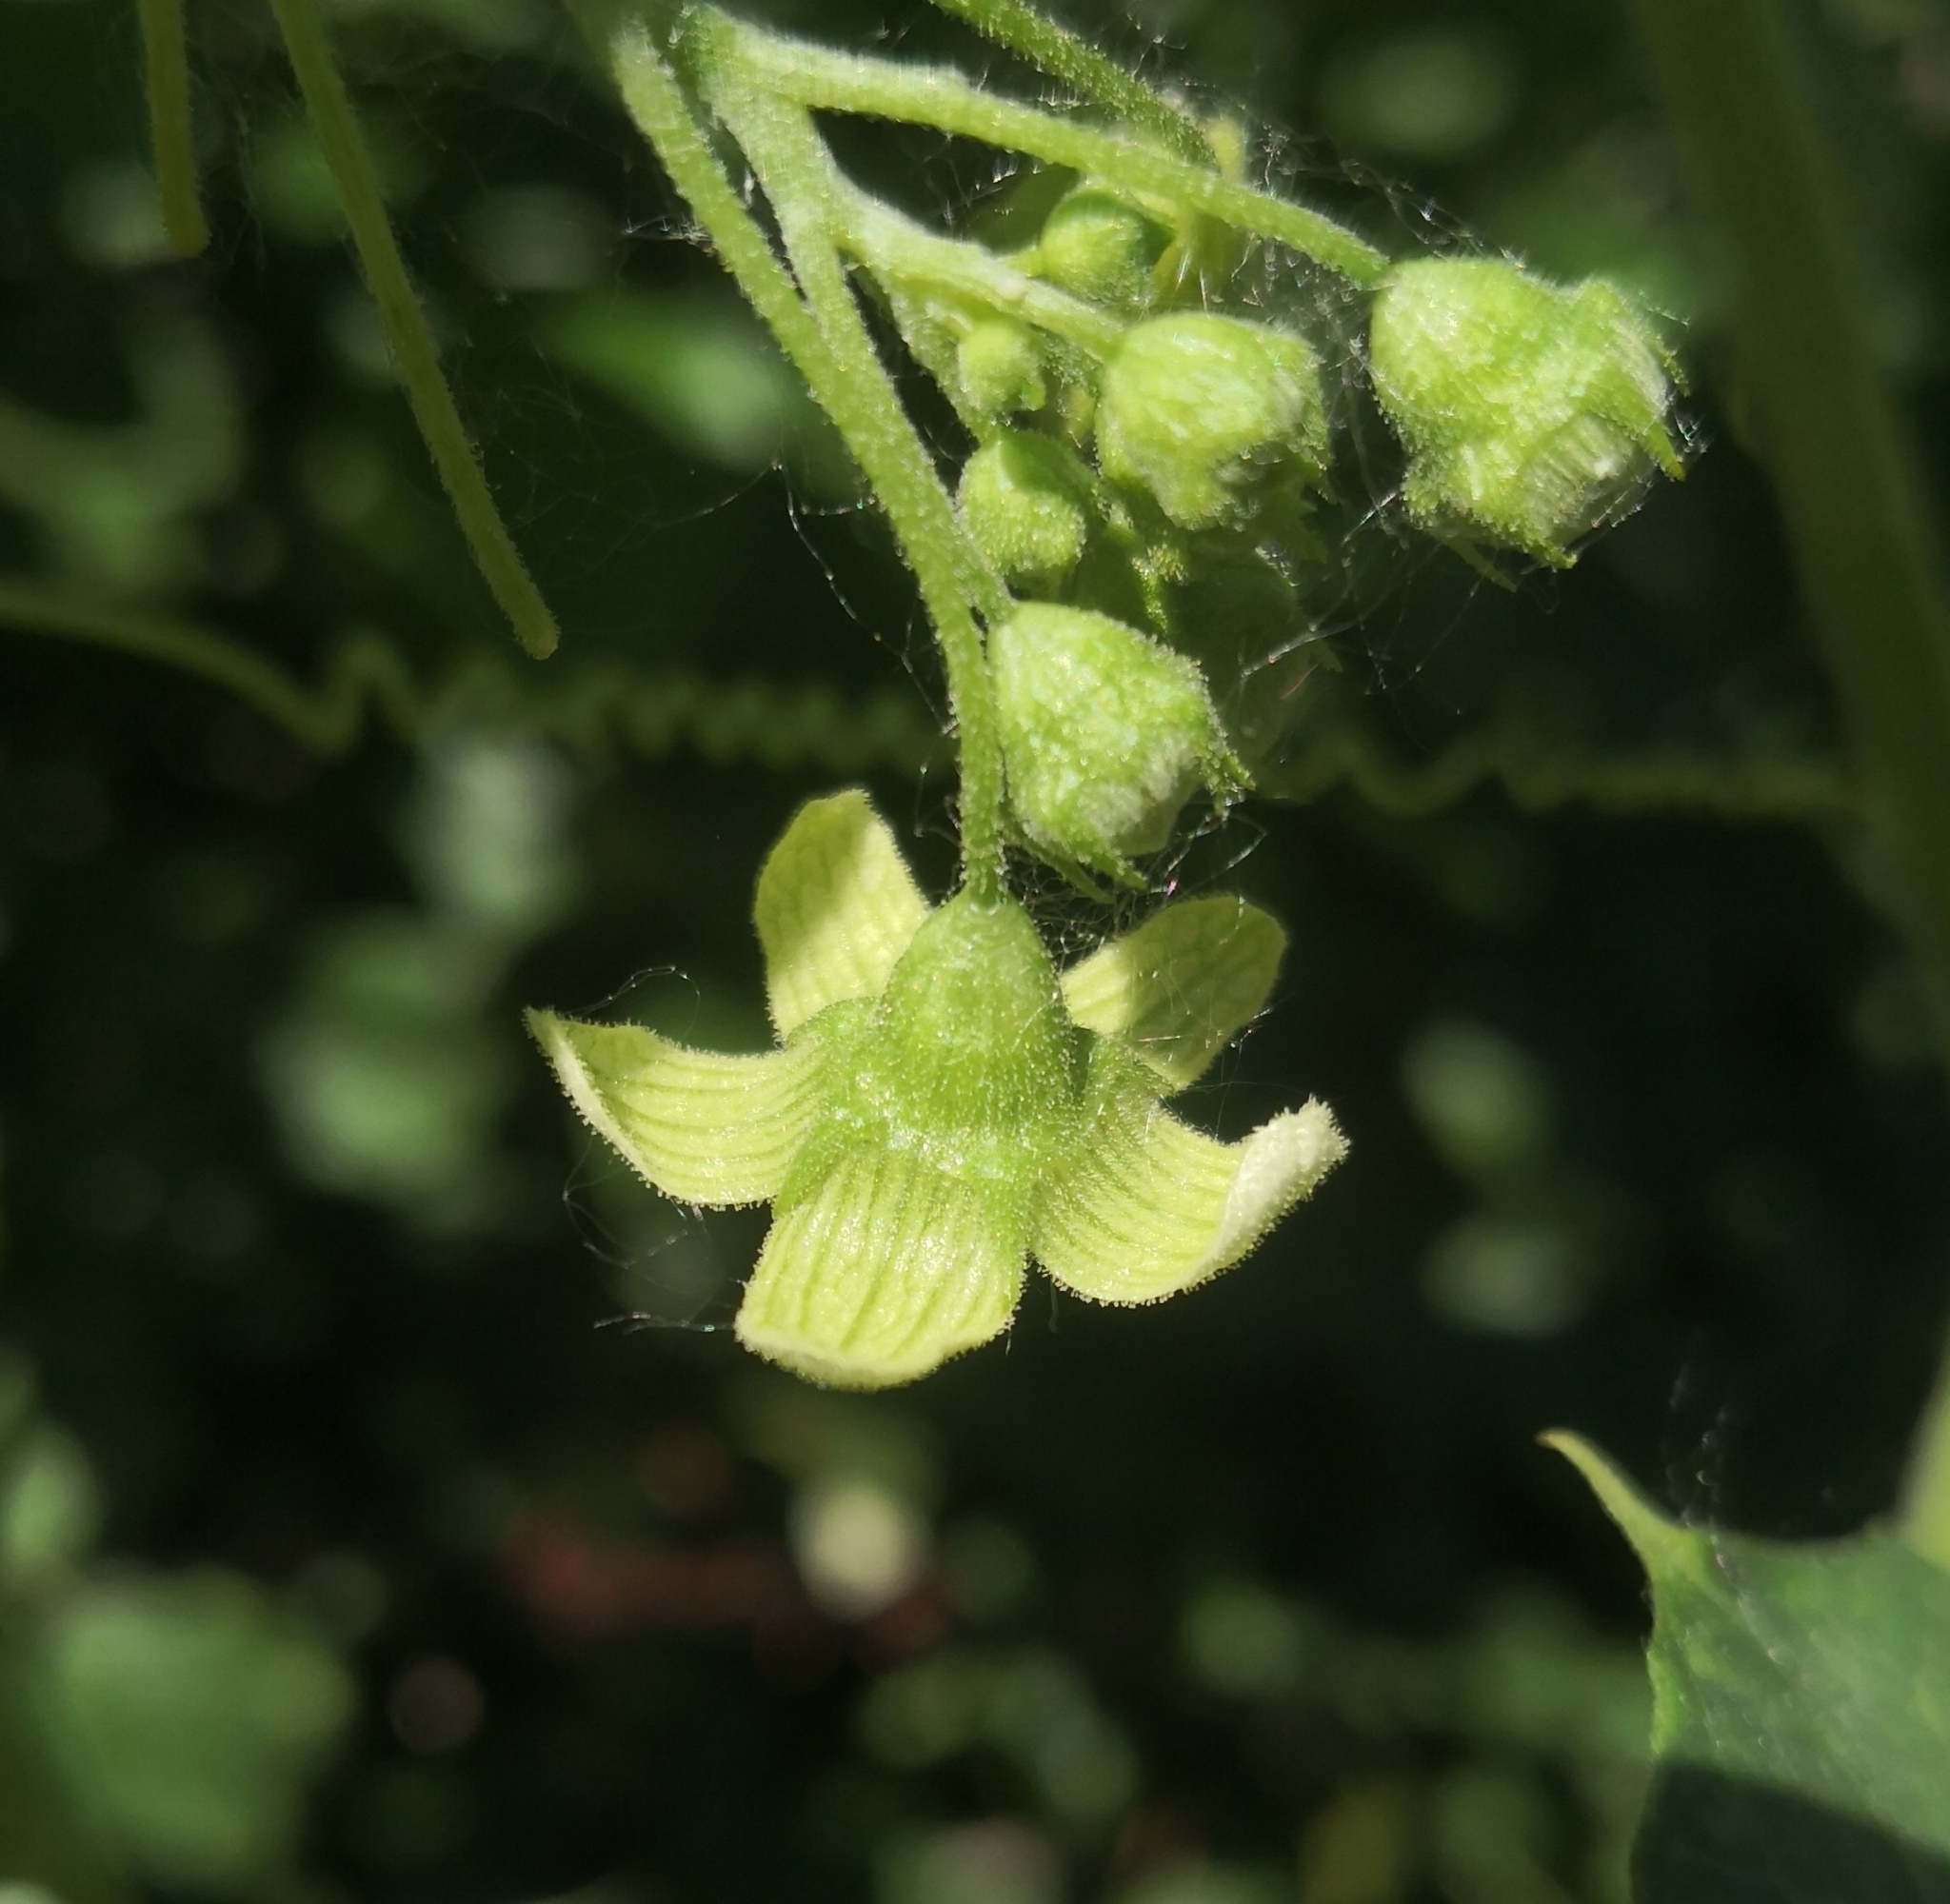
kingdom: Plantae
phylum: Tracheophyta
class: Magnoliopsida
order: Cucurbitales
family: Cucurbitaceae
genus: Bryonia
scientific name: Bryonia cretica
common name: Cretan bryony
